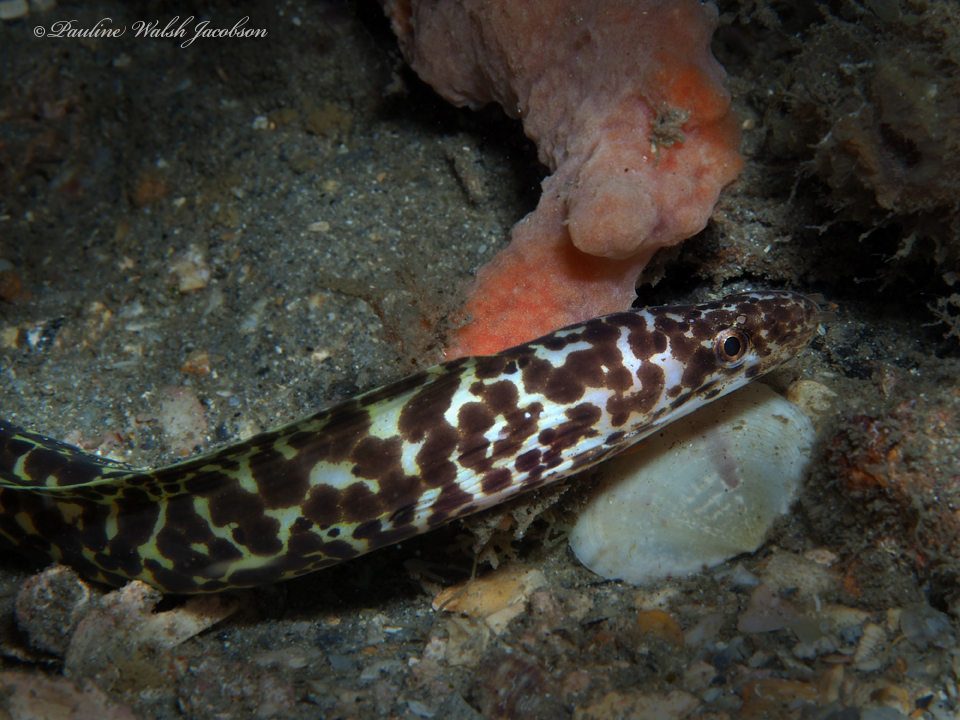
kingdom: Animalia
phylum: Chordata
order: Anguilliformes
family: Muraenidae
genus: Gymnothorax
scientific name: Gymnothorax moringa
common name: Spotted moray
